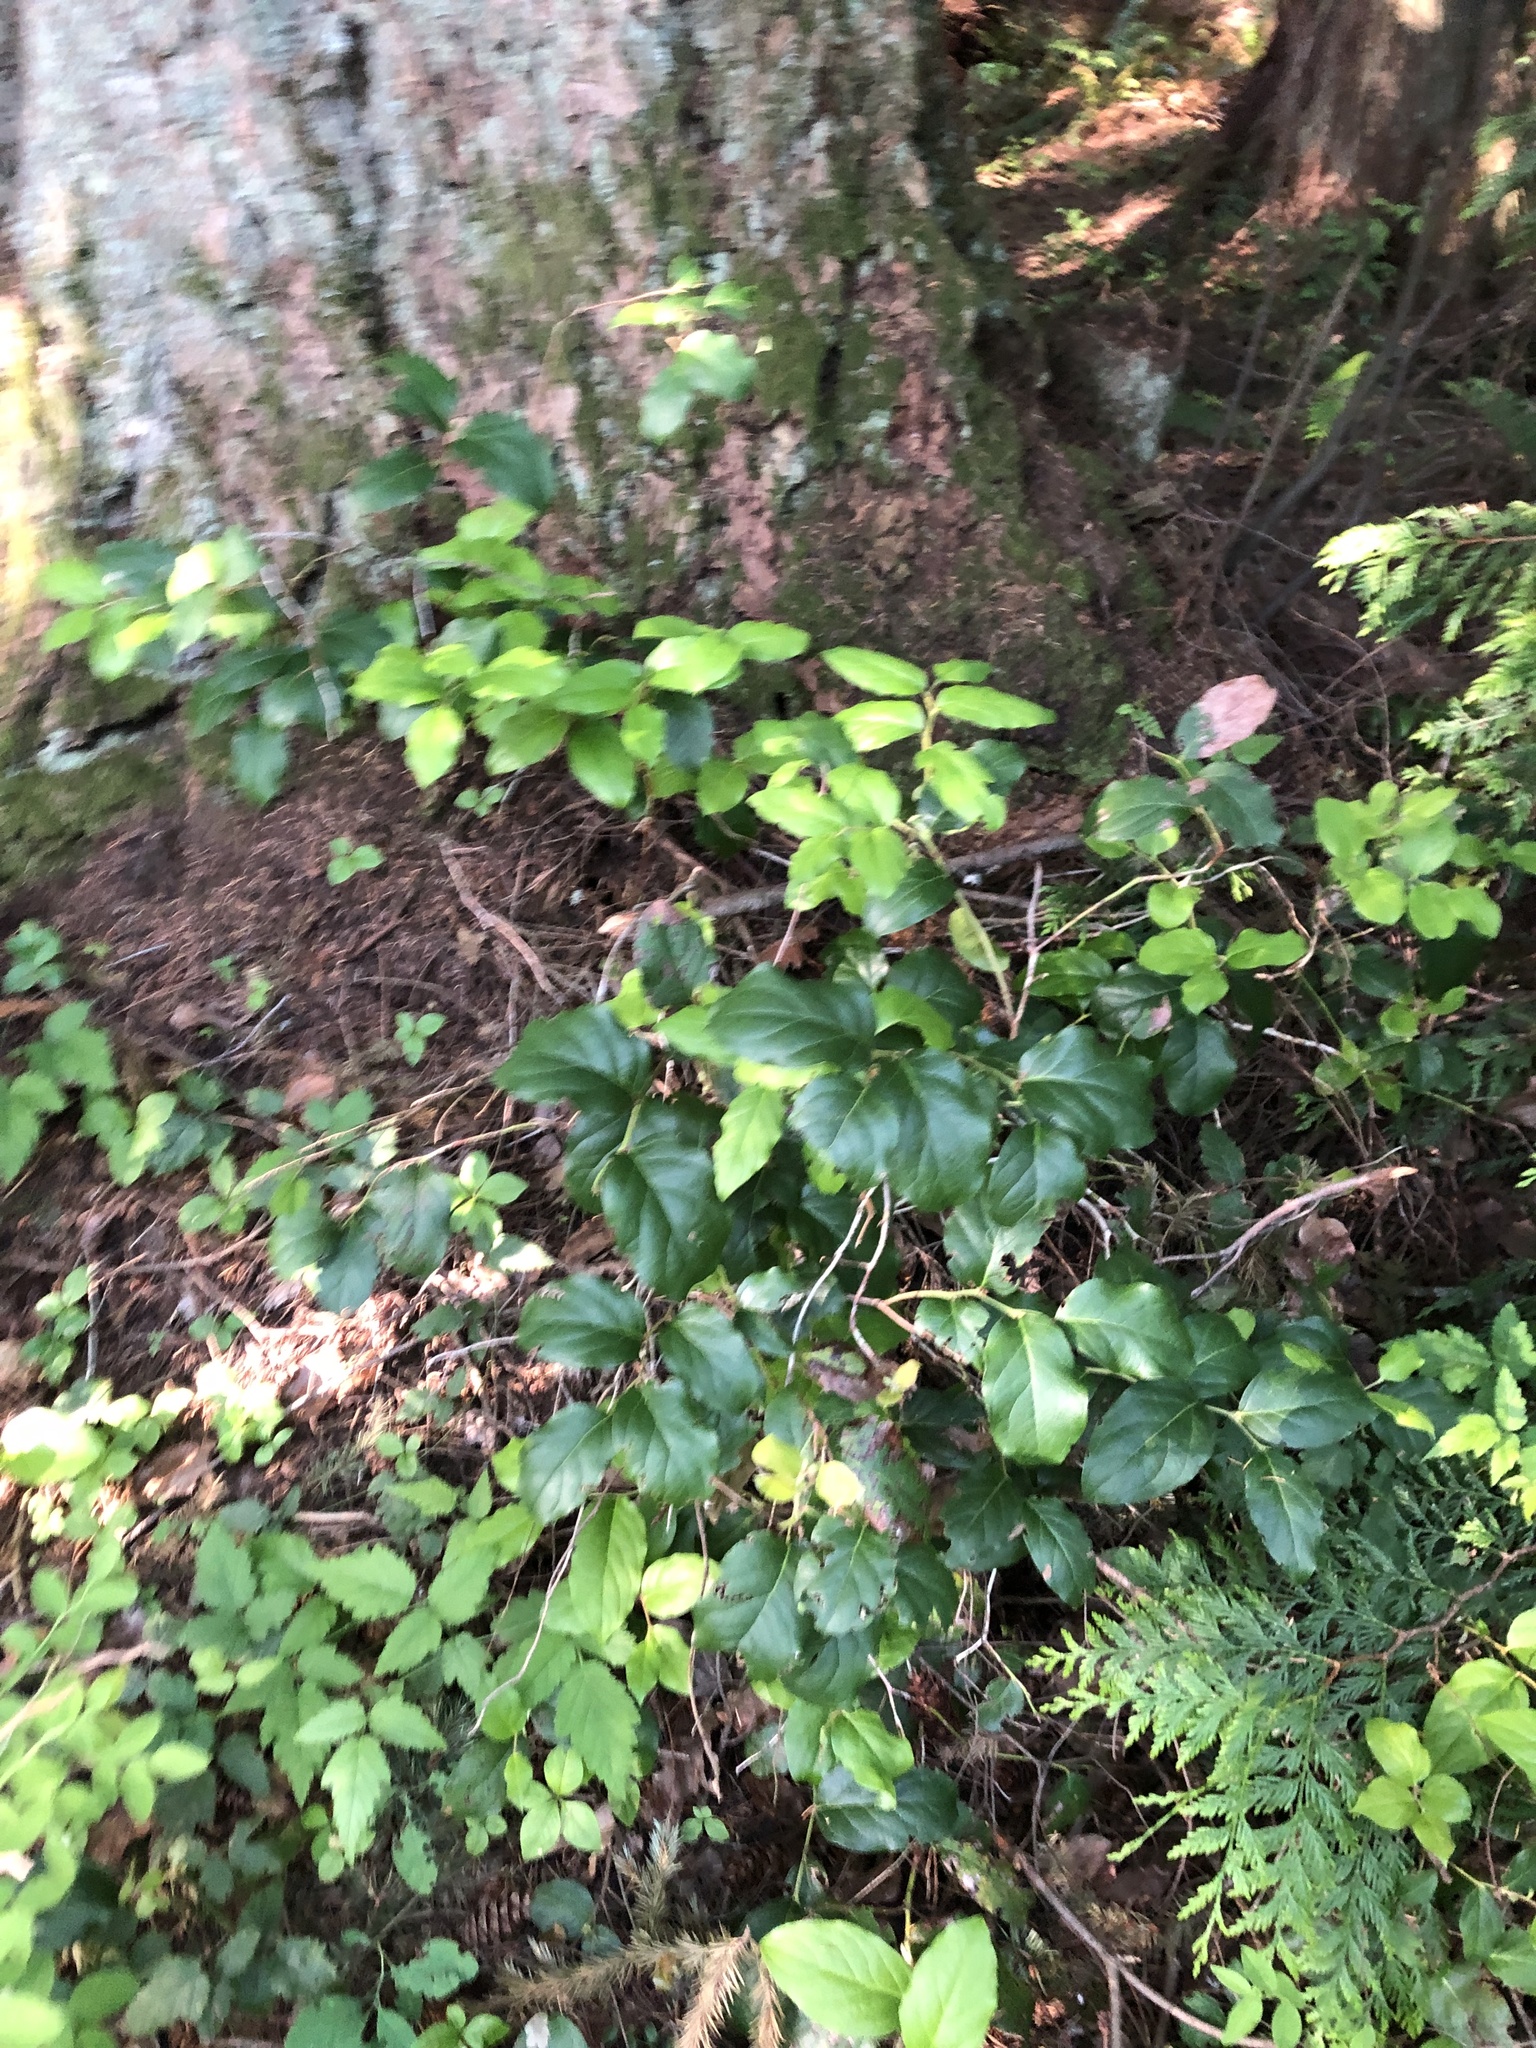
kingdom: Plantae
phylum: Tracheophyta
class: Magnoliopsida
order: Ericales
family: Ericaceae
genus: Gaultheria
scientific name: Gaultheria shallon
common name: Shallon
